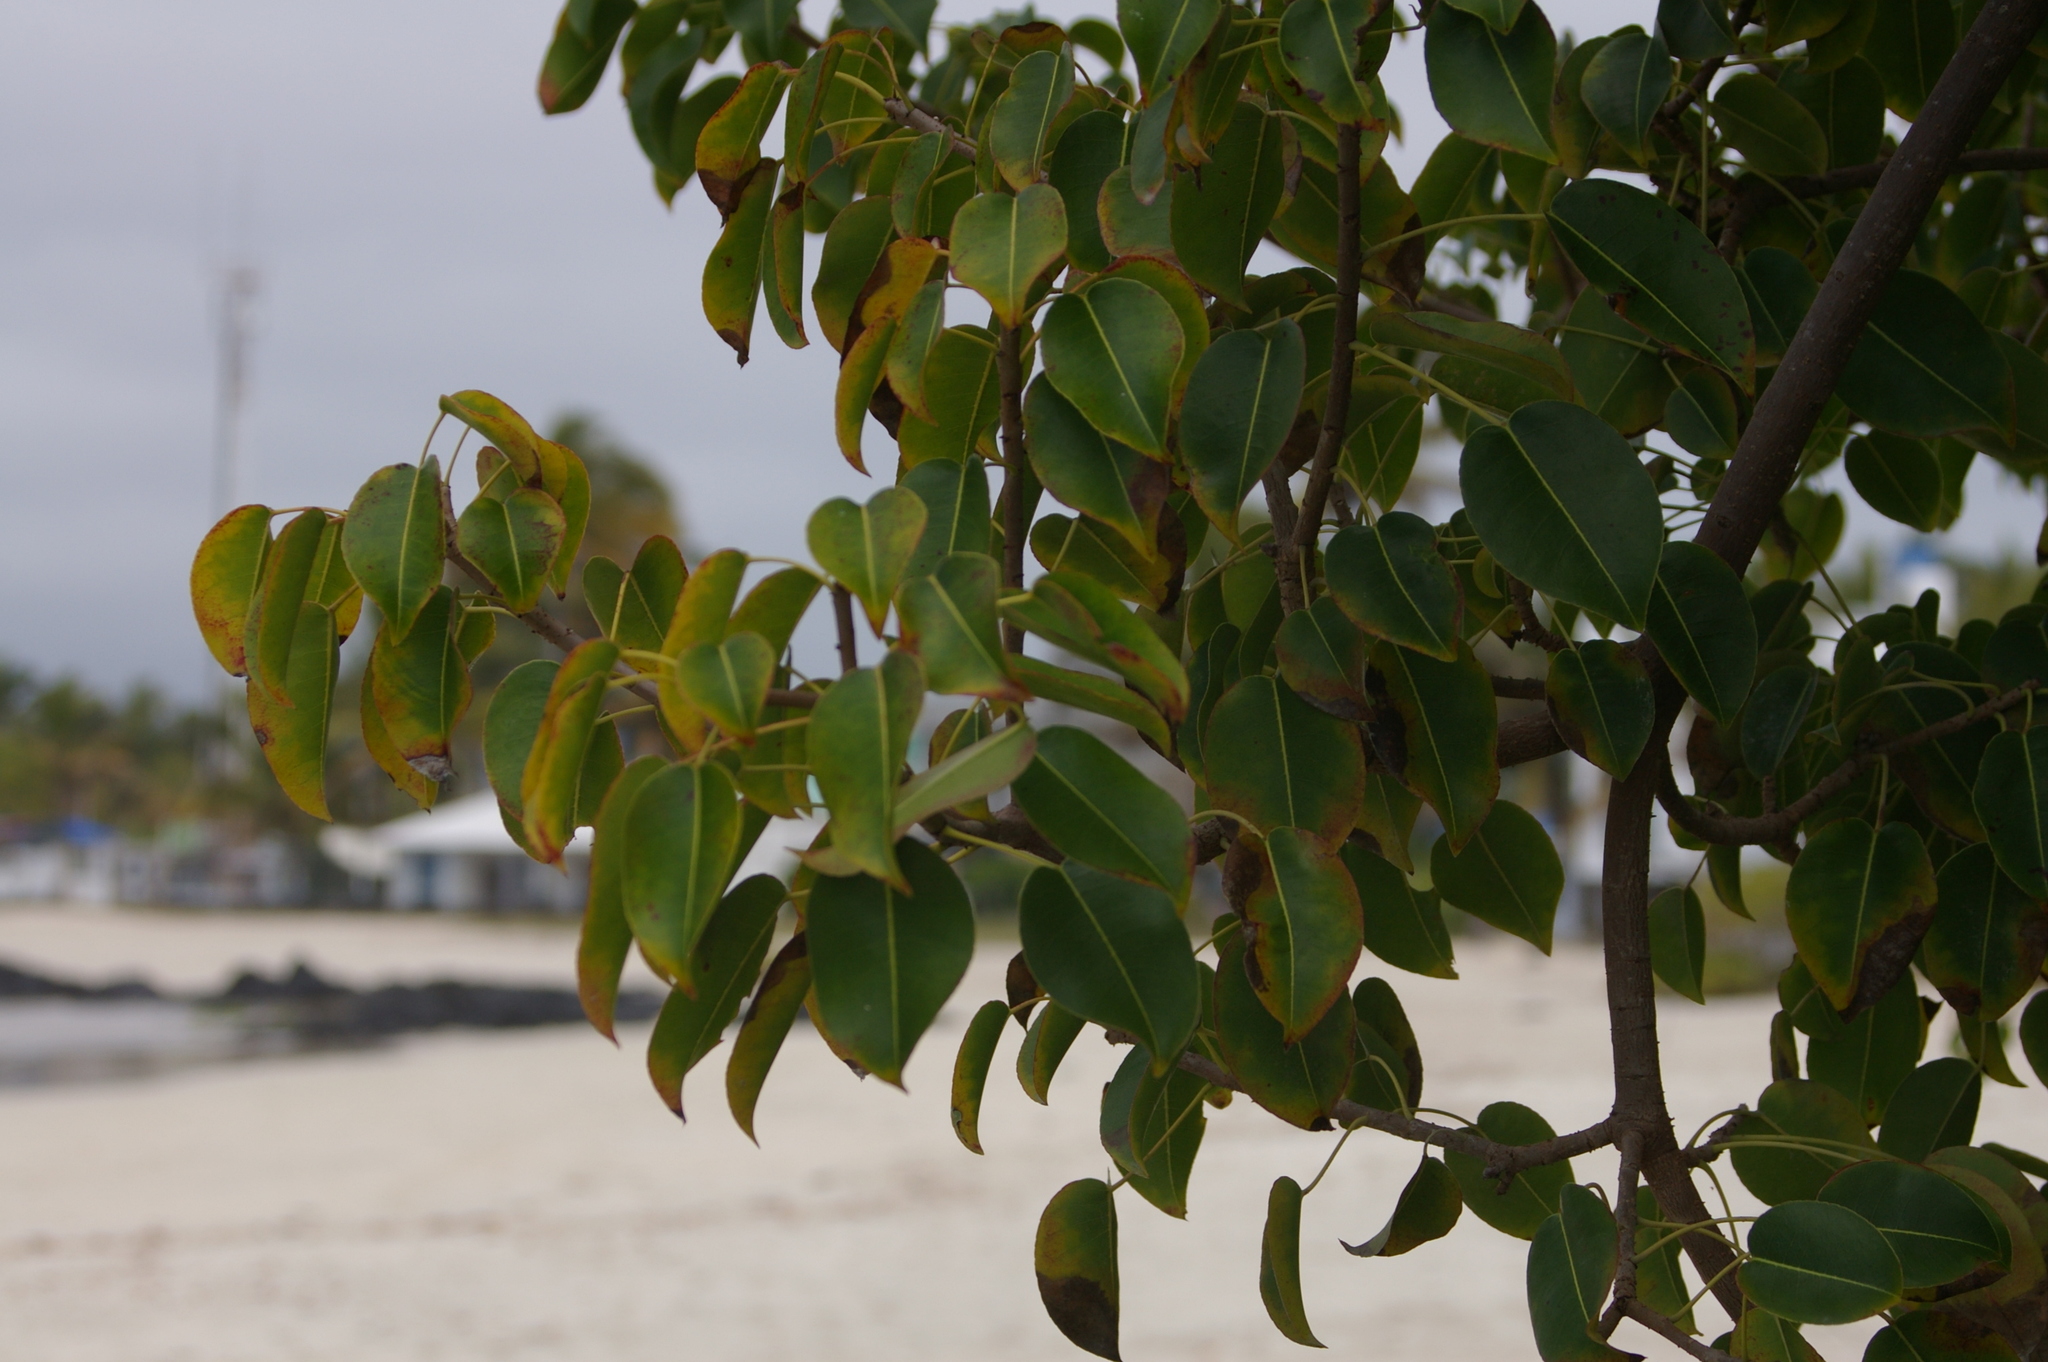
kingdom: Plantae
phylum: Tracheophyta
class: Magnoliopsida
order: Malpighiales
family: Euphorbiaceae
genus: Hippomane
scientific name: Hippomane mancinella
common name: Manchineel
